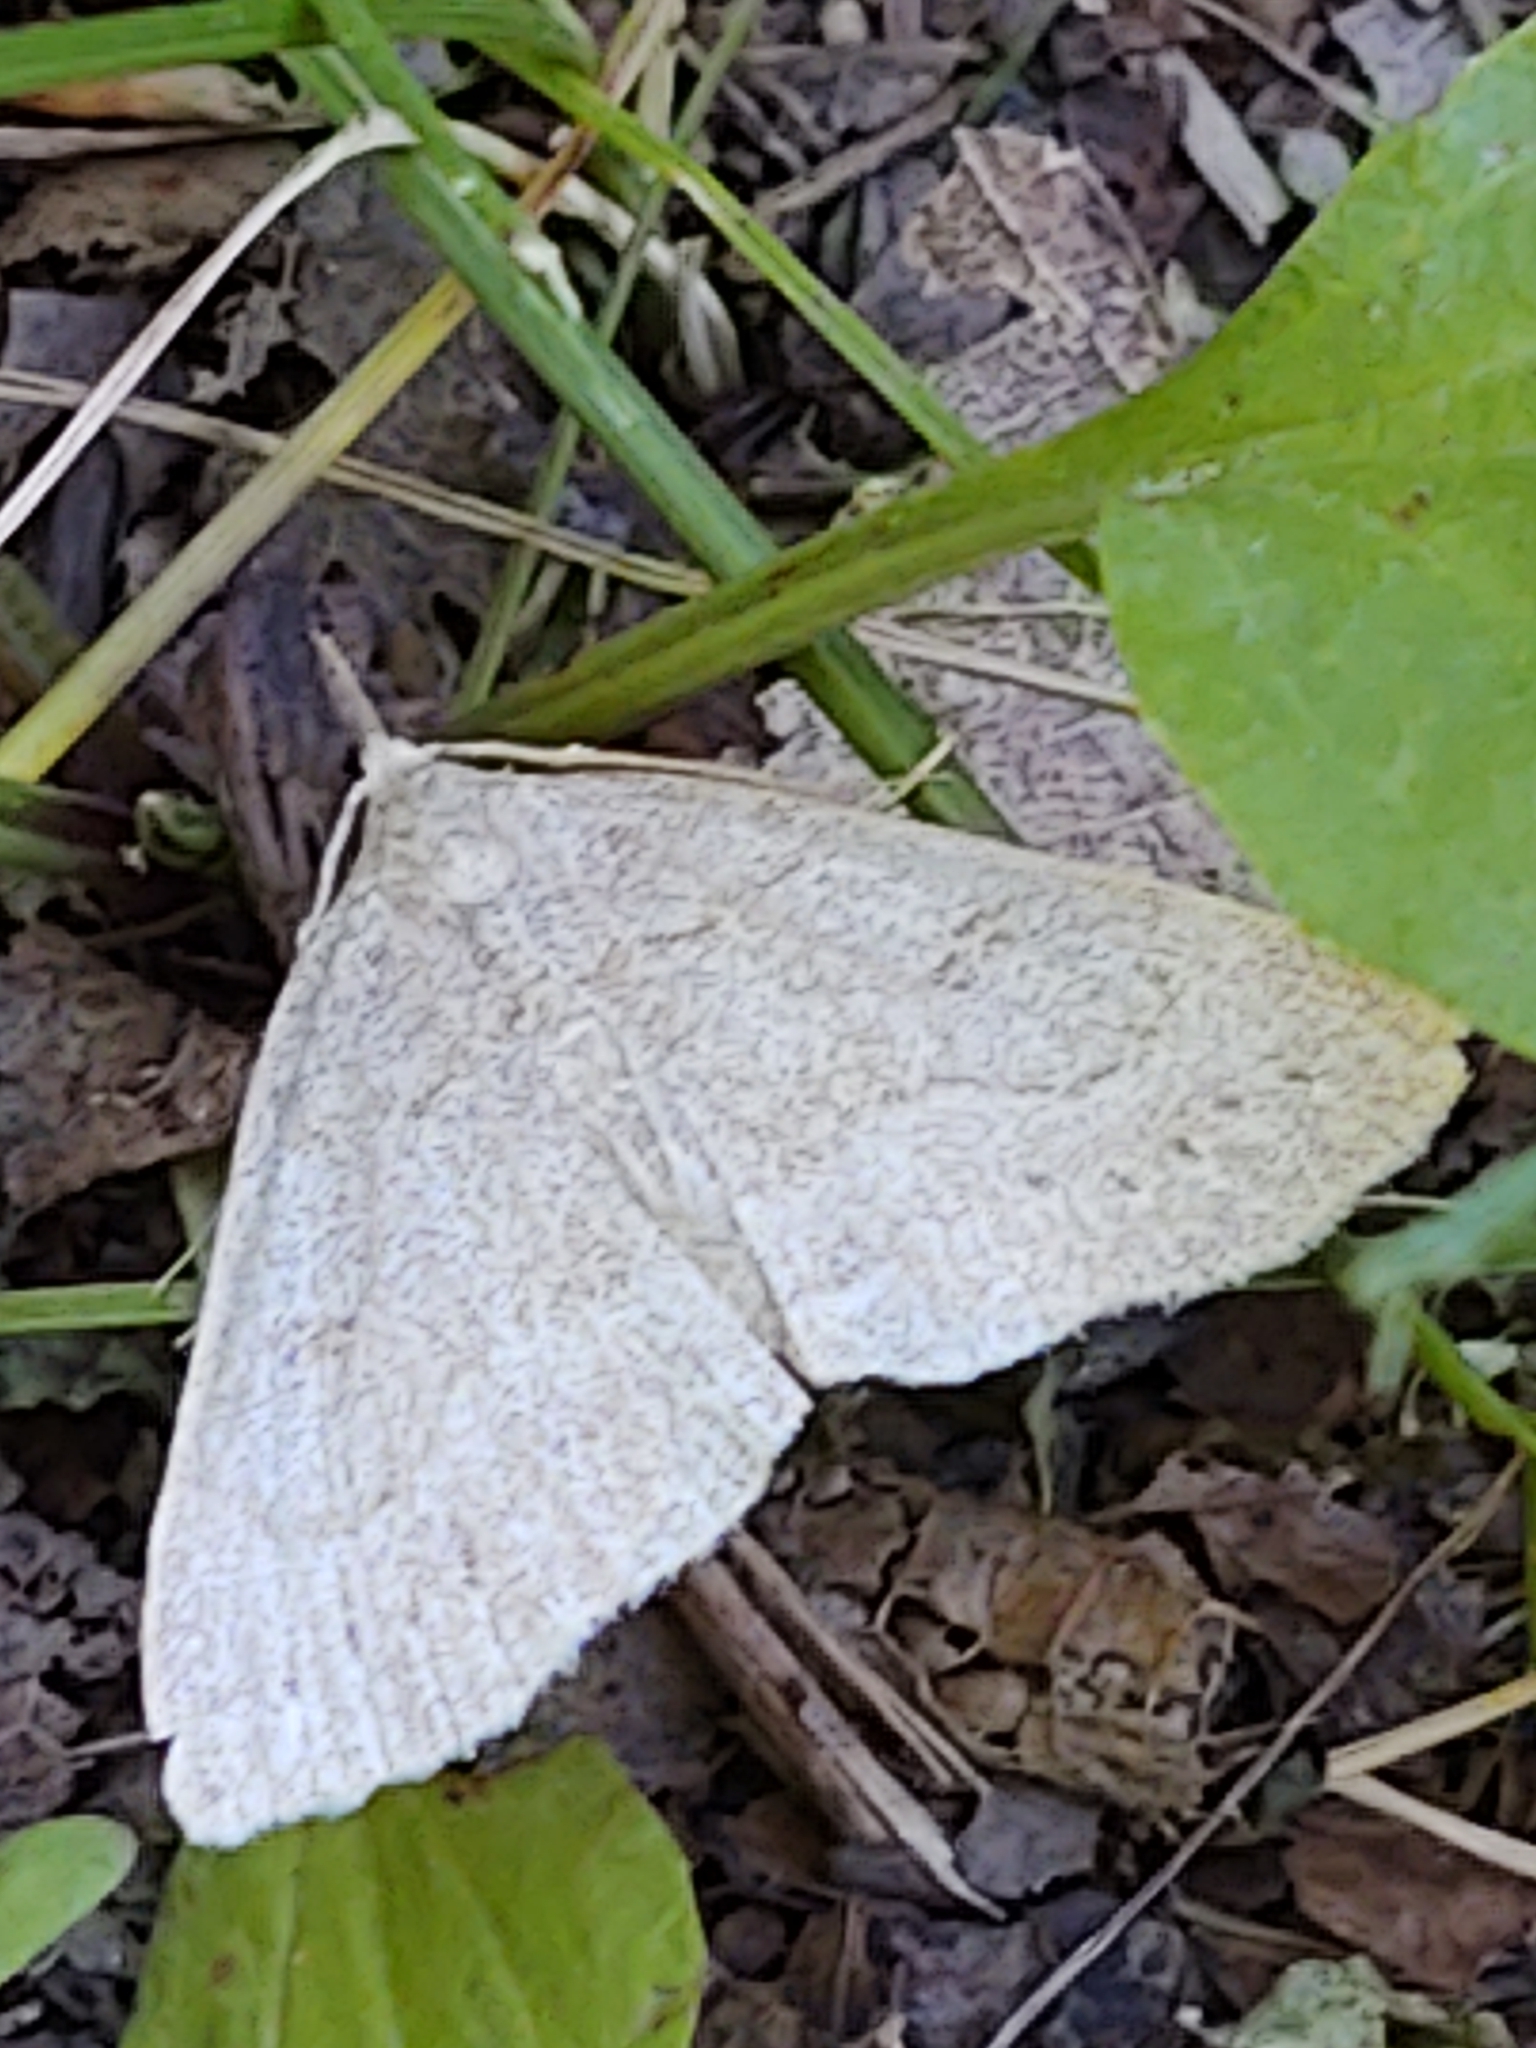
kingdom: Animalia
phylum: Arthropoda
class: Insecta
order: Lepidoptera
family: Erebidae
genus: Macrochilo
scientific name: Macrochilo morbidalis
